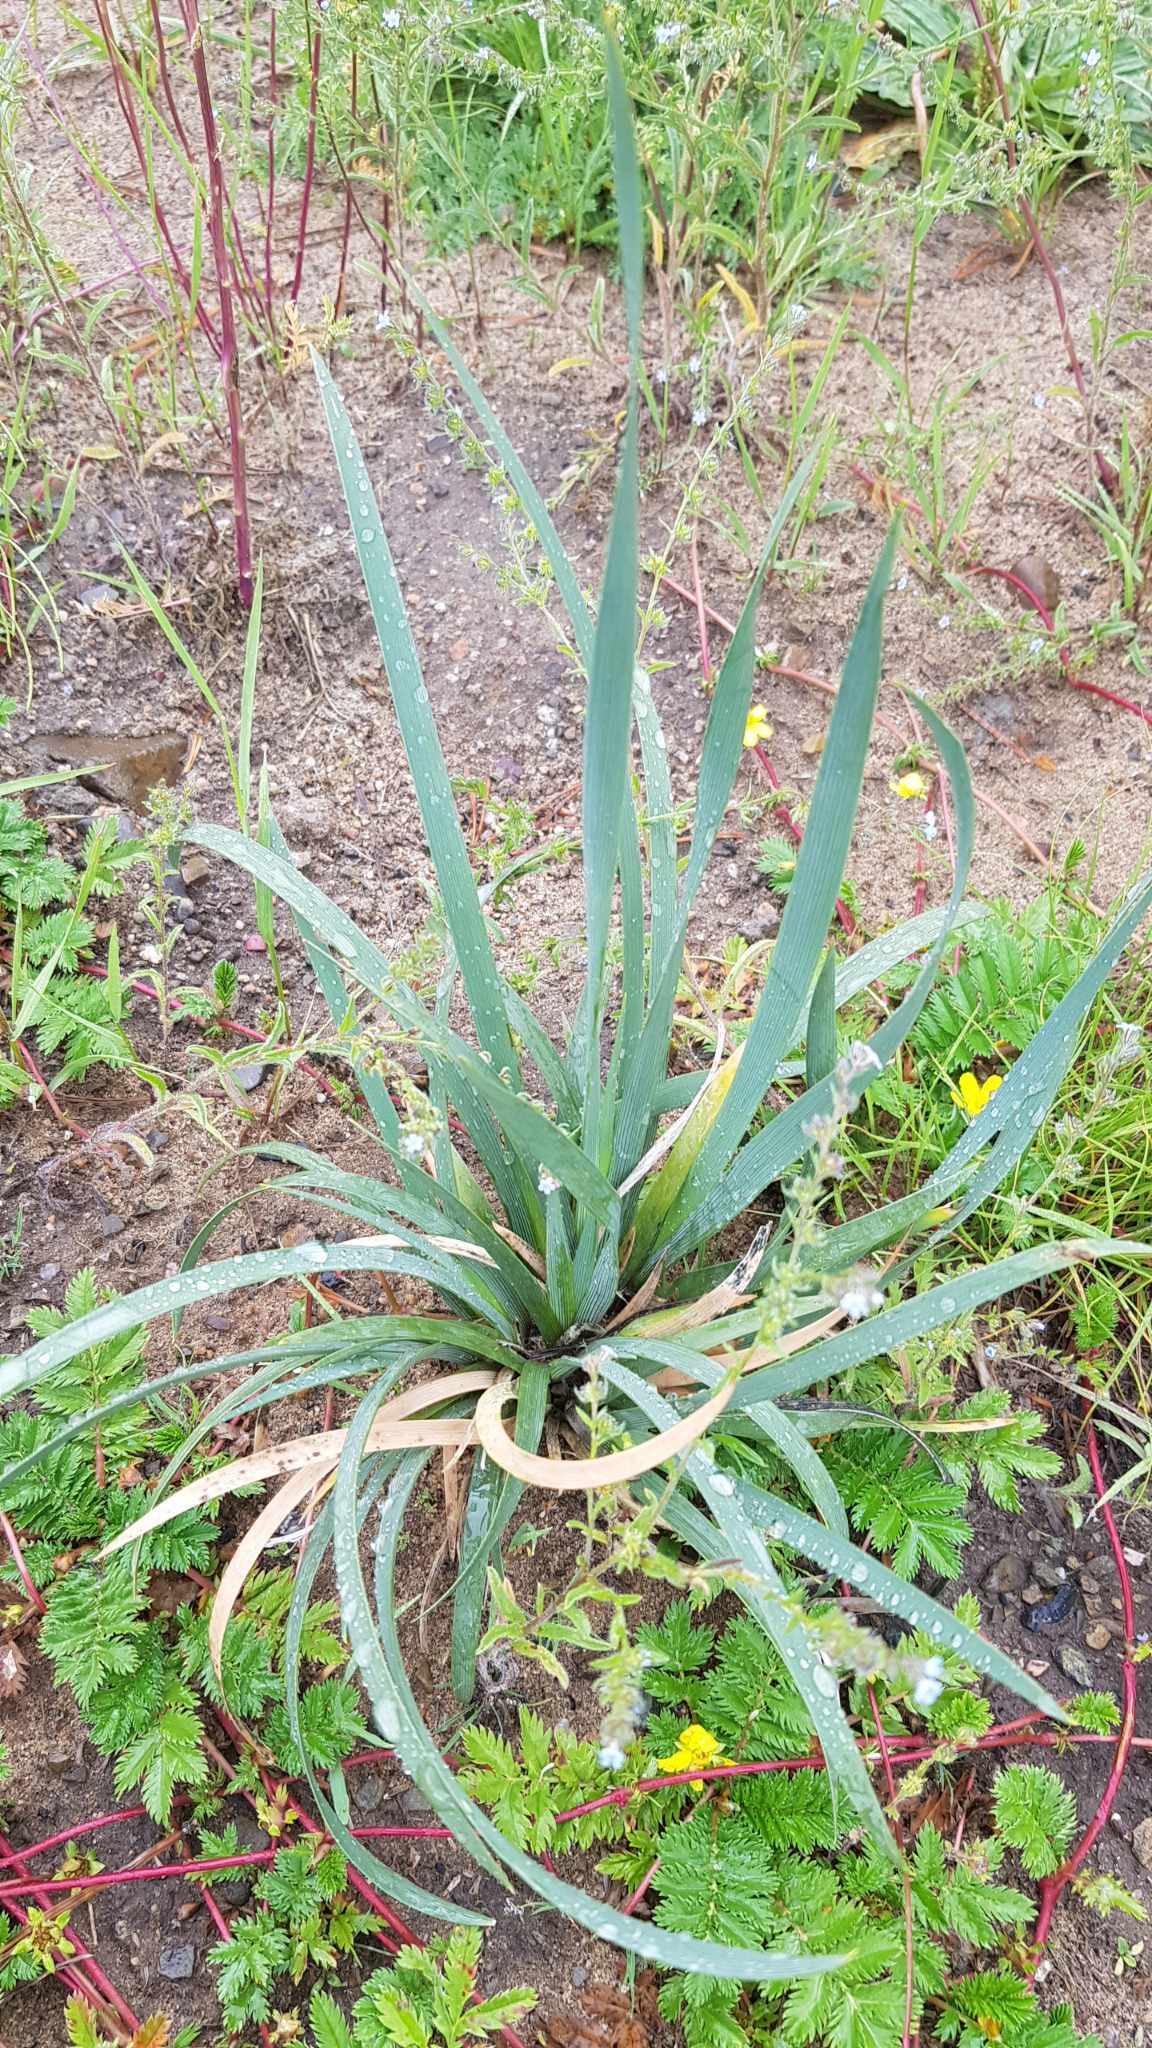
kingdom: Plantae
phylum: Tracheophyta
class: Liliopsida
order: Asparagales
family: Iridaceae
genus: Iris
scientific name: Iris lactea
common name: White-flower chinese iris
